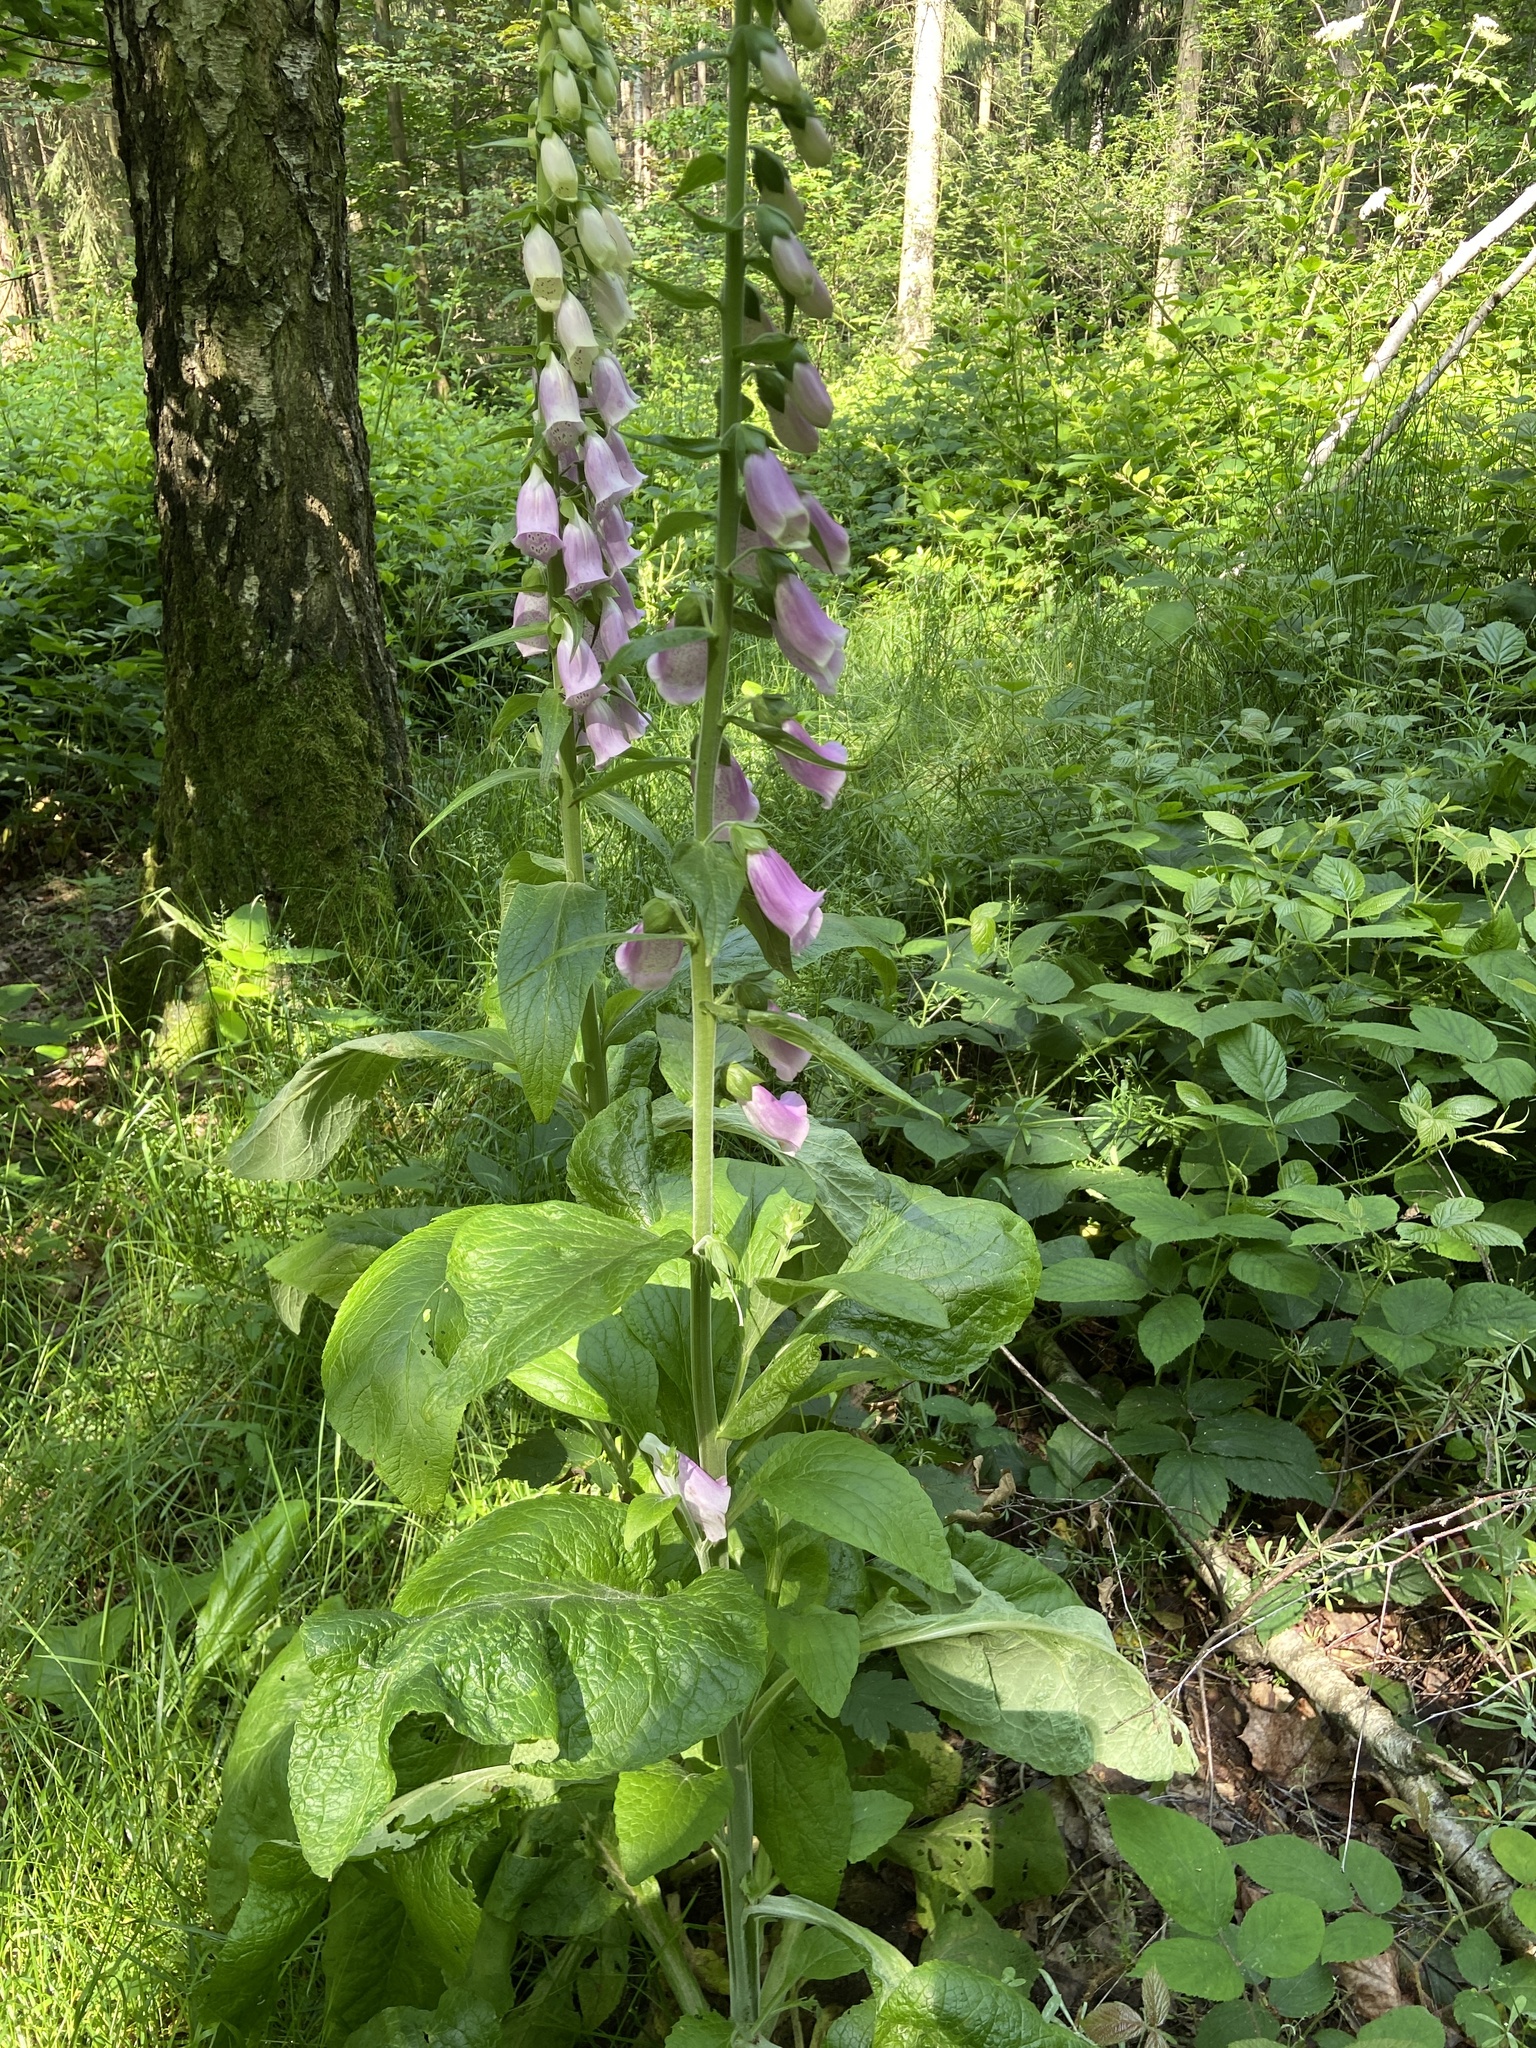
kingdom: Plantae
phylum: Tracheophyta
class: Magnoliopsida
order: Lamiales
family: Plantaginaceae
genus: Digitalis
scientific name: Digitalis purpurea
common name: Foxglove
